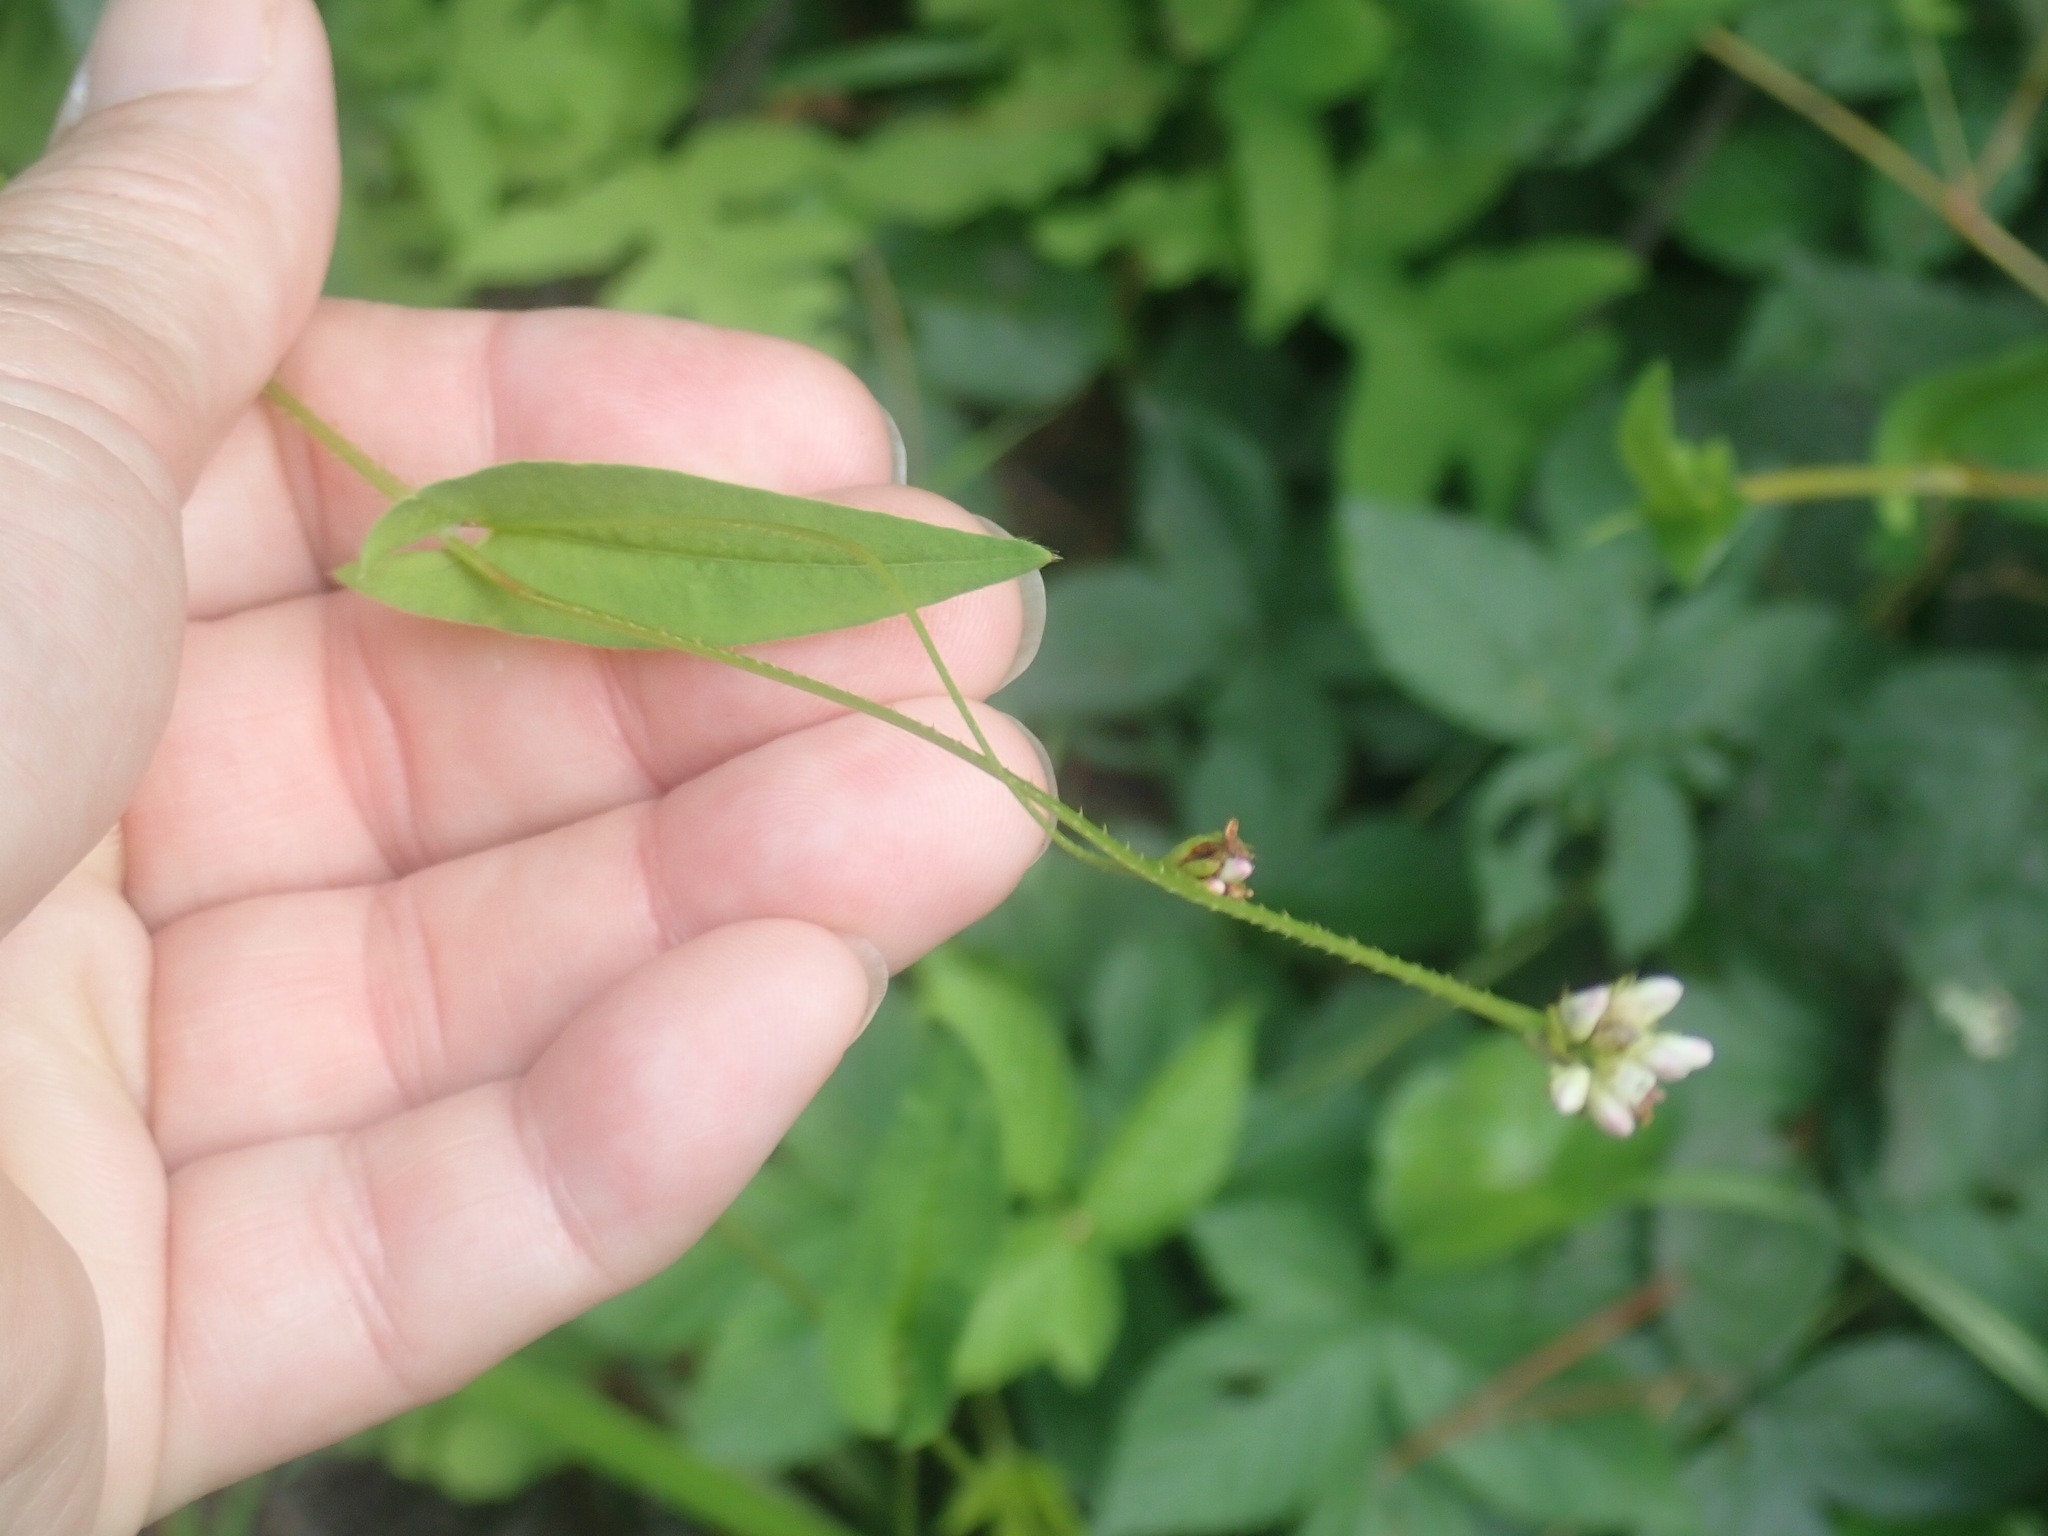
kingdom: Plantae
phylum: Tracheophyta
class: Magnoliopsida
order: Caryophyllales
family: Polygonaceae
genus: Persicaria
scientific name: Persicaria sagittata
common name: American tearthumb
